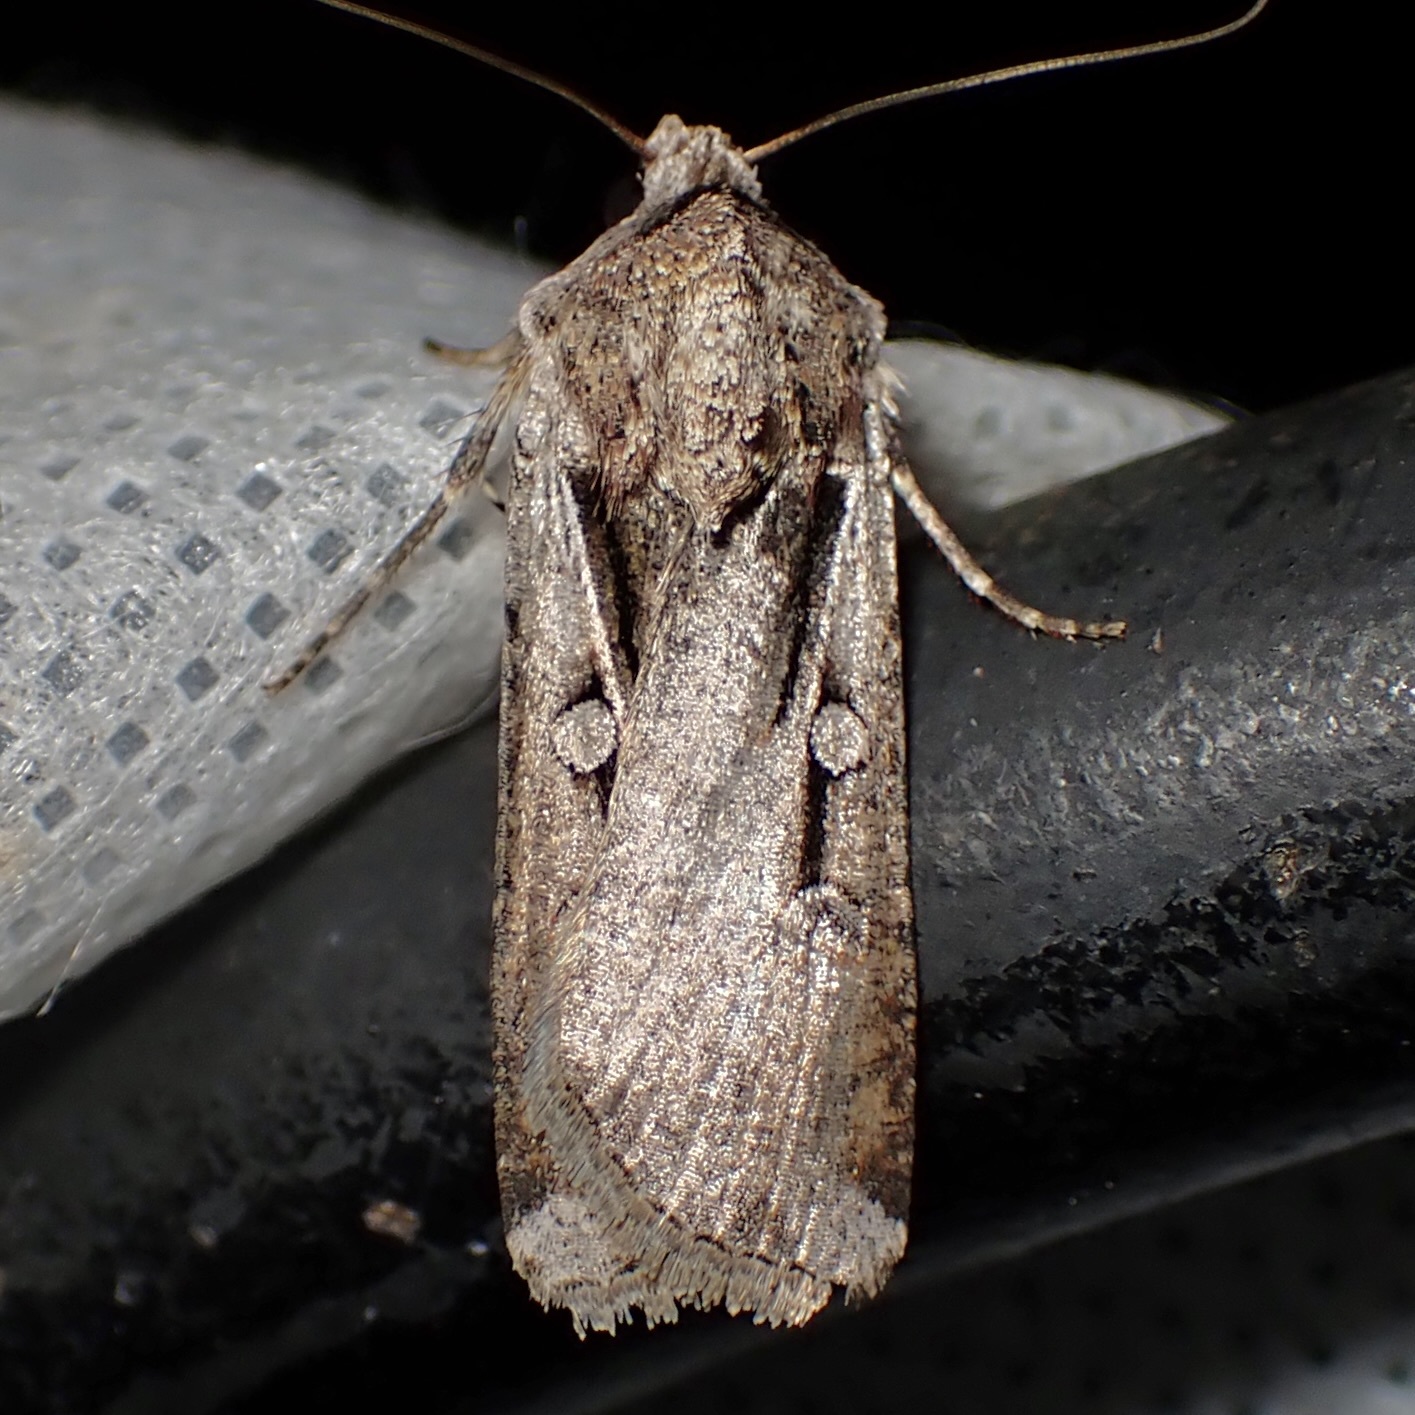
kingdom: Animalia
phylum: Arthropoda
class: Insecta
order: Lepidoptera
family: Noctuidae
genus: Hemieuxoa
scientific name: Hemieuxoa rudens
